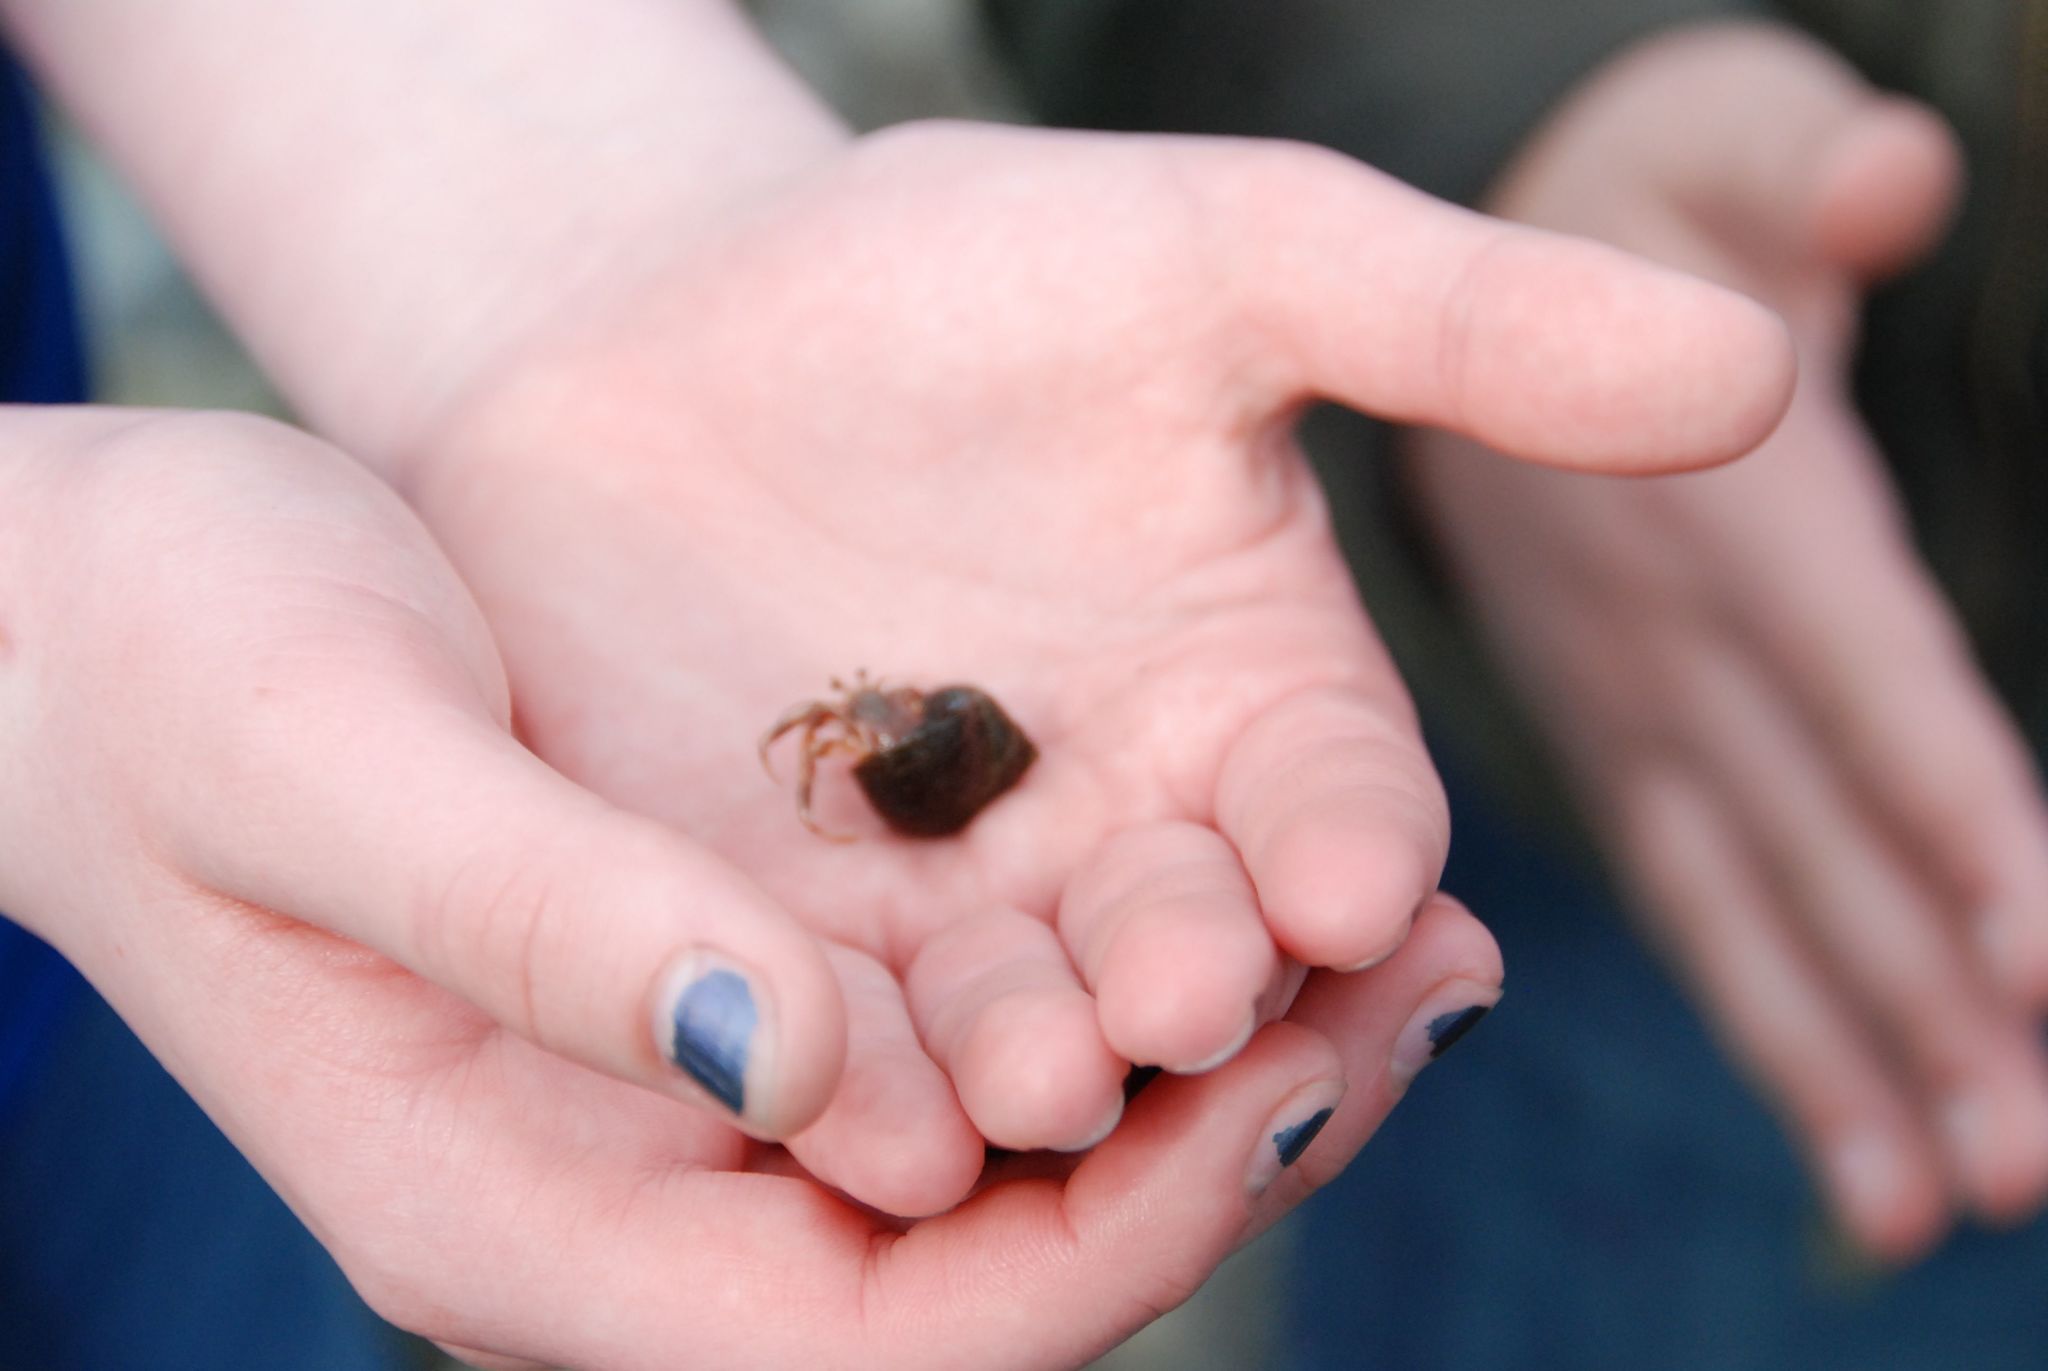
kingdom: Animalia
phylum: Arthropoda
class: Malacostraca
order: Decapoda
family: Paguridae
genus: Pagurus
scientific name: Pagurus longicarpus
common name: Long-armed hermit crab
